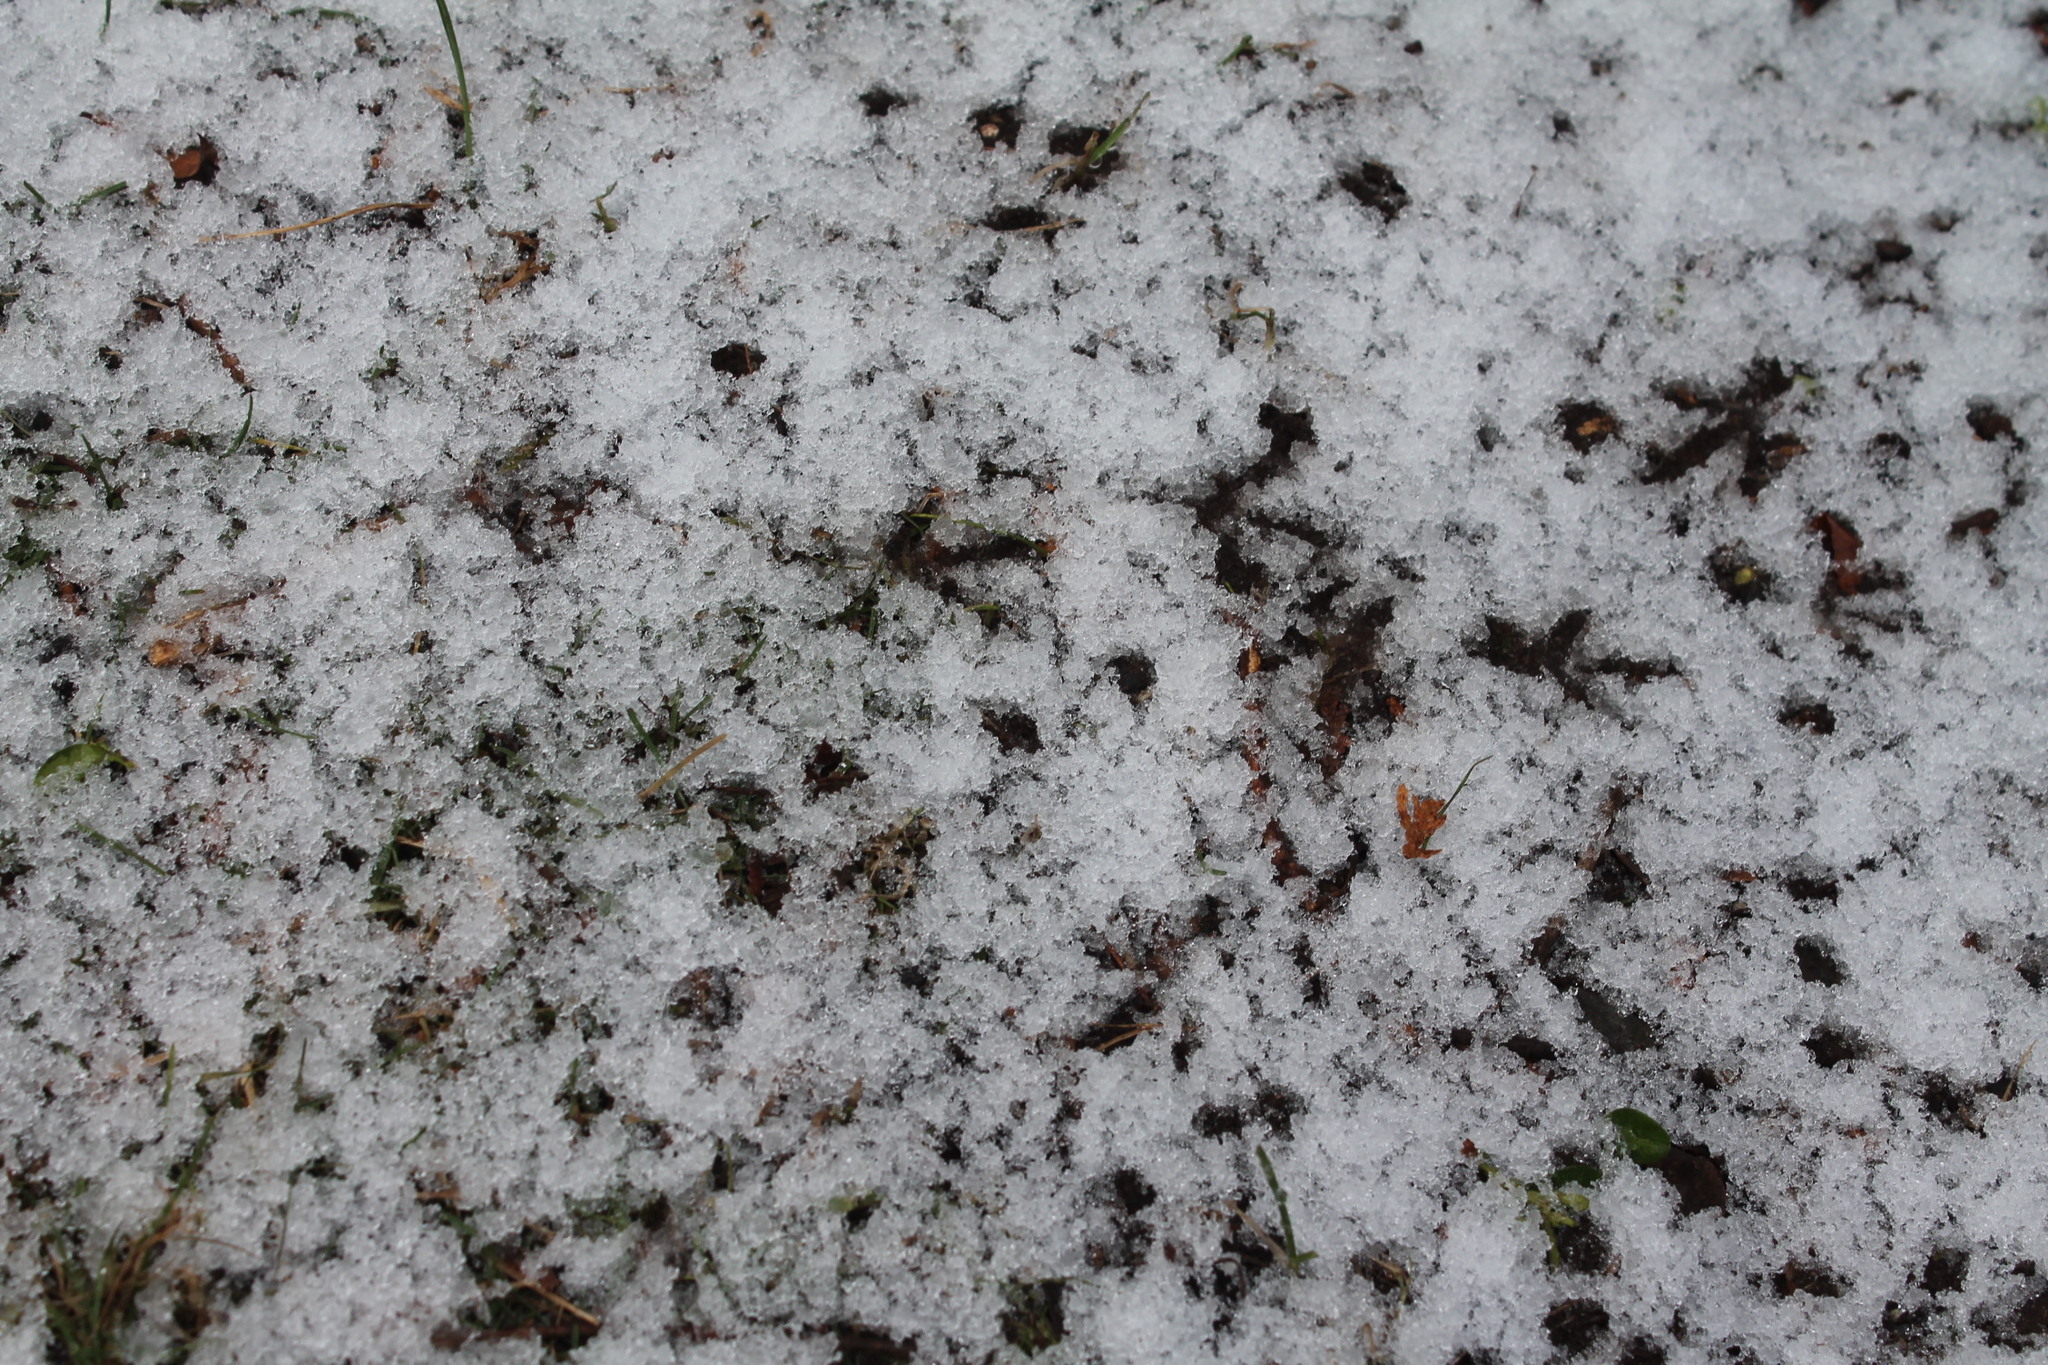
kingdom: Animalia
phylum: Chordata
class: Aves
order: Columbiformes
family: Columbidae
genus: Zenaida
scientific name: Zenaida macroura
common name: Mourning dove
